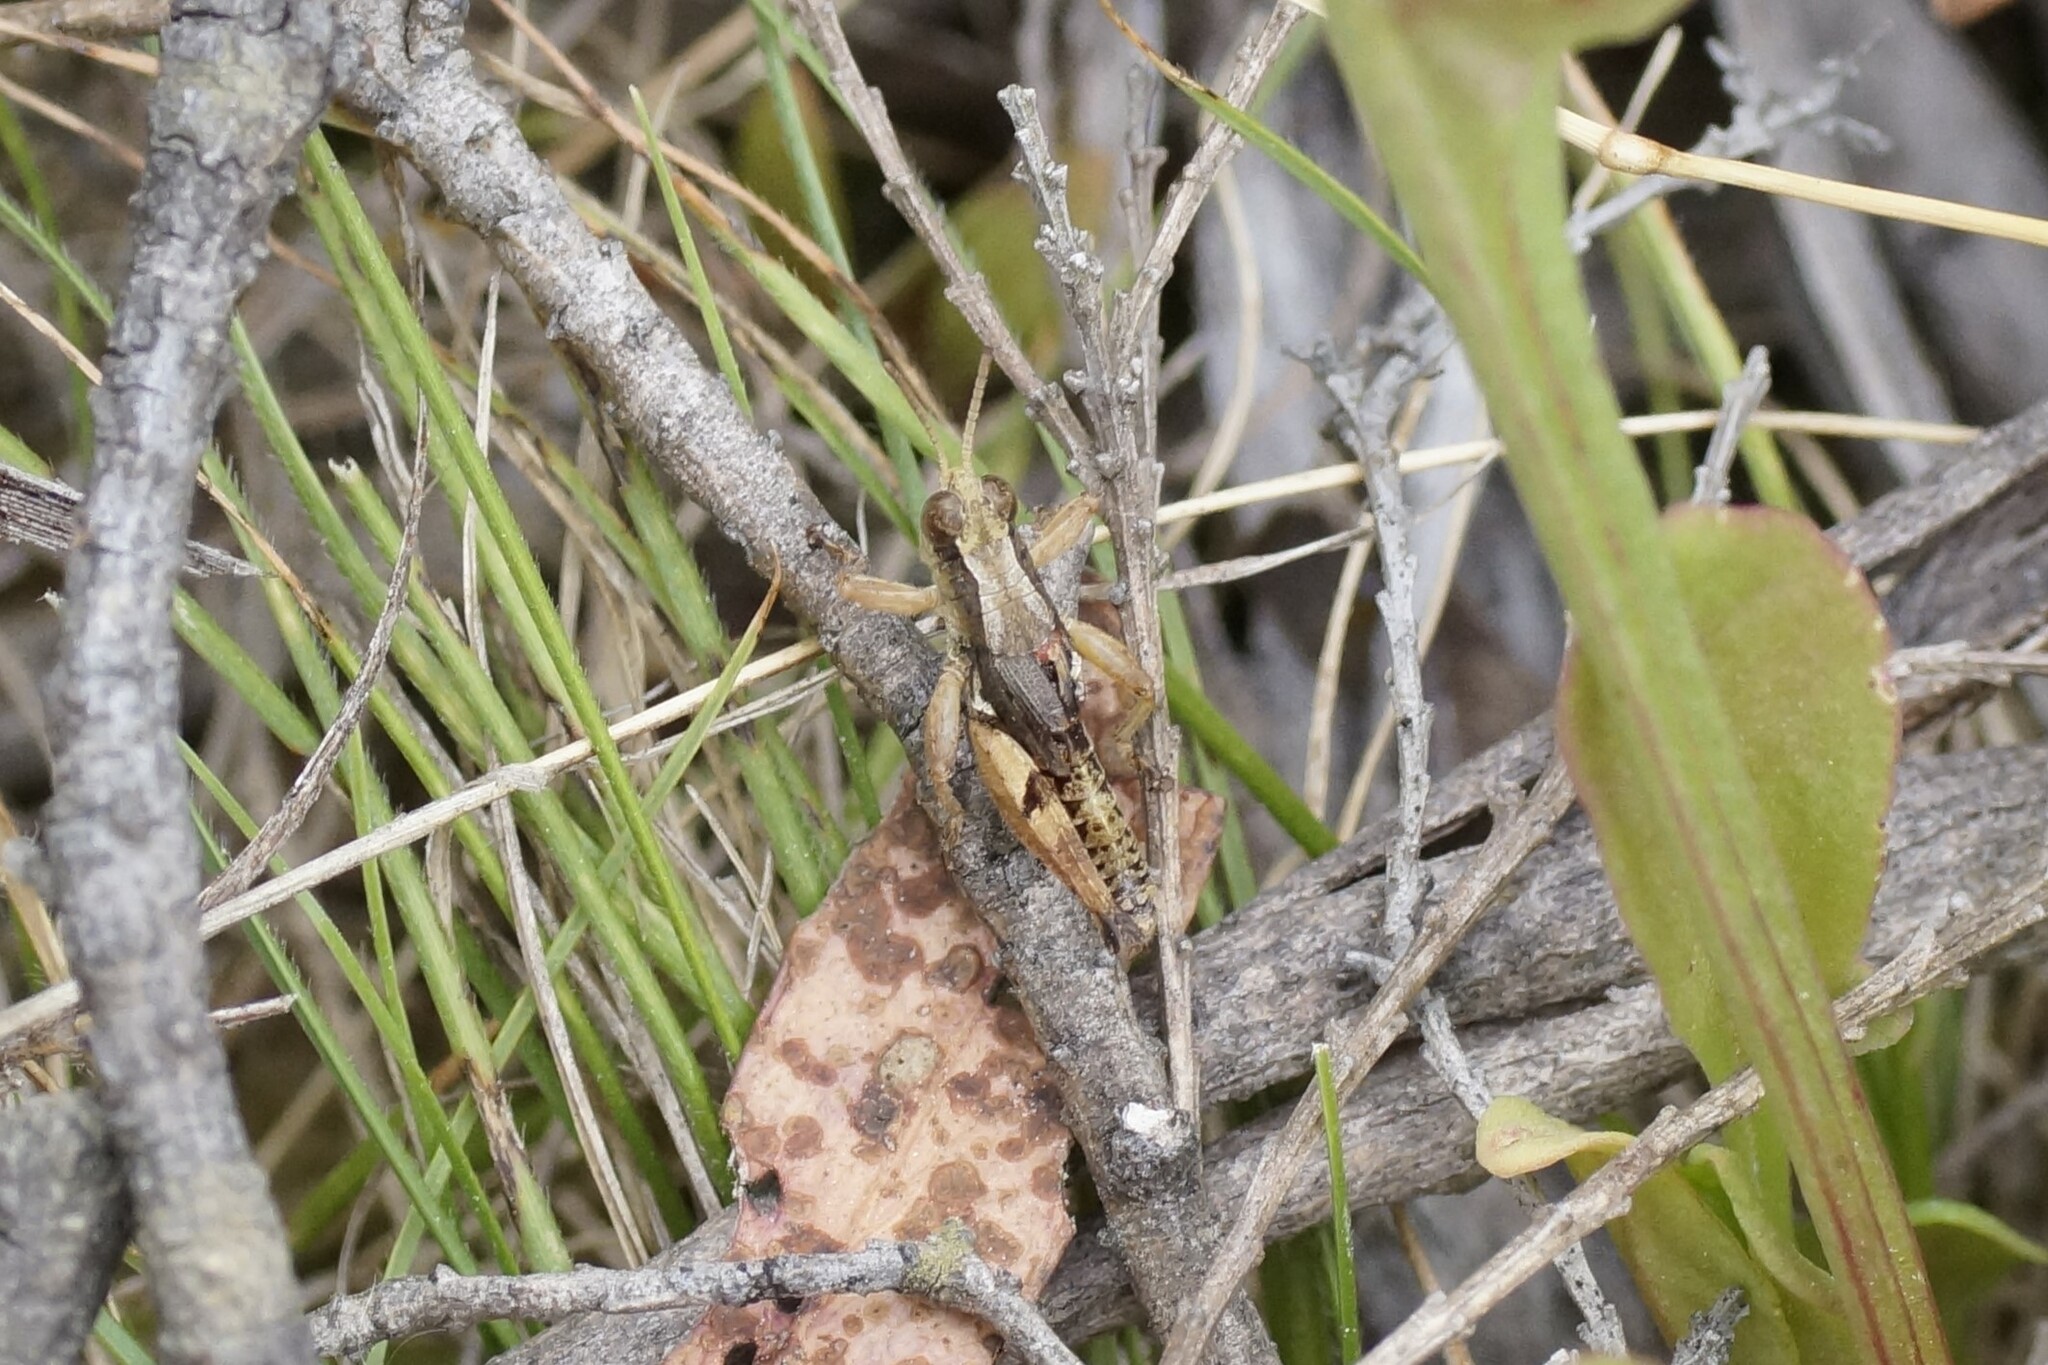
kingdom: Animalia
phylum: Arthropoda
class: Insecta
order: Orthoptera
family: Acrididae
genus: Phaulacridium
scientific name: Phaulacridium vittatum
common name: Wingless grasshopper
